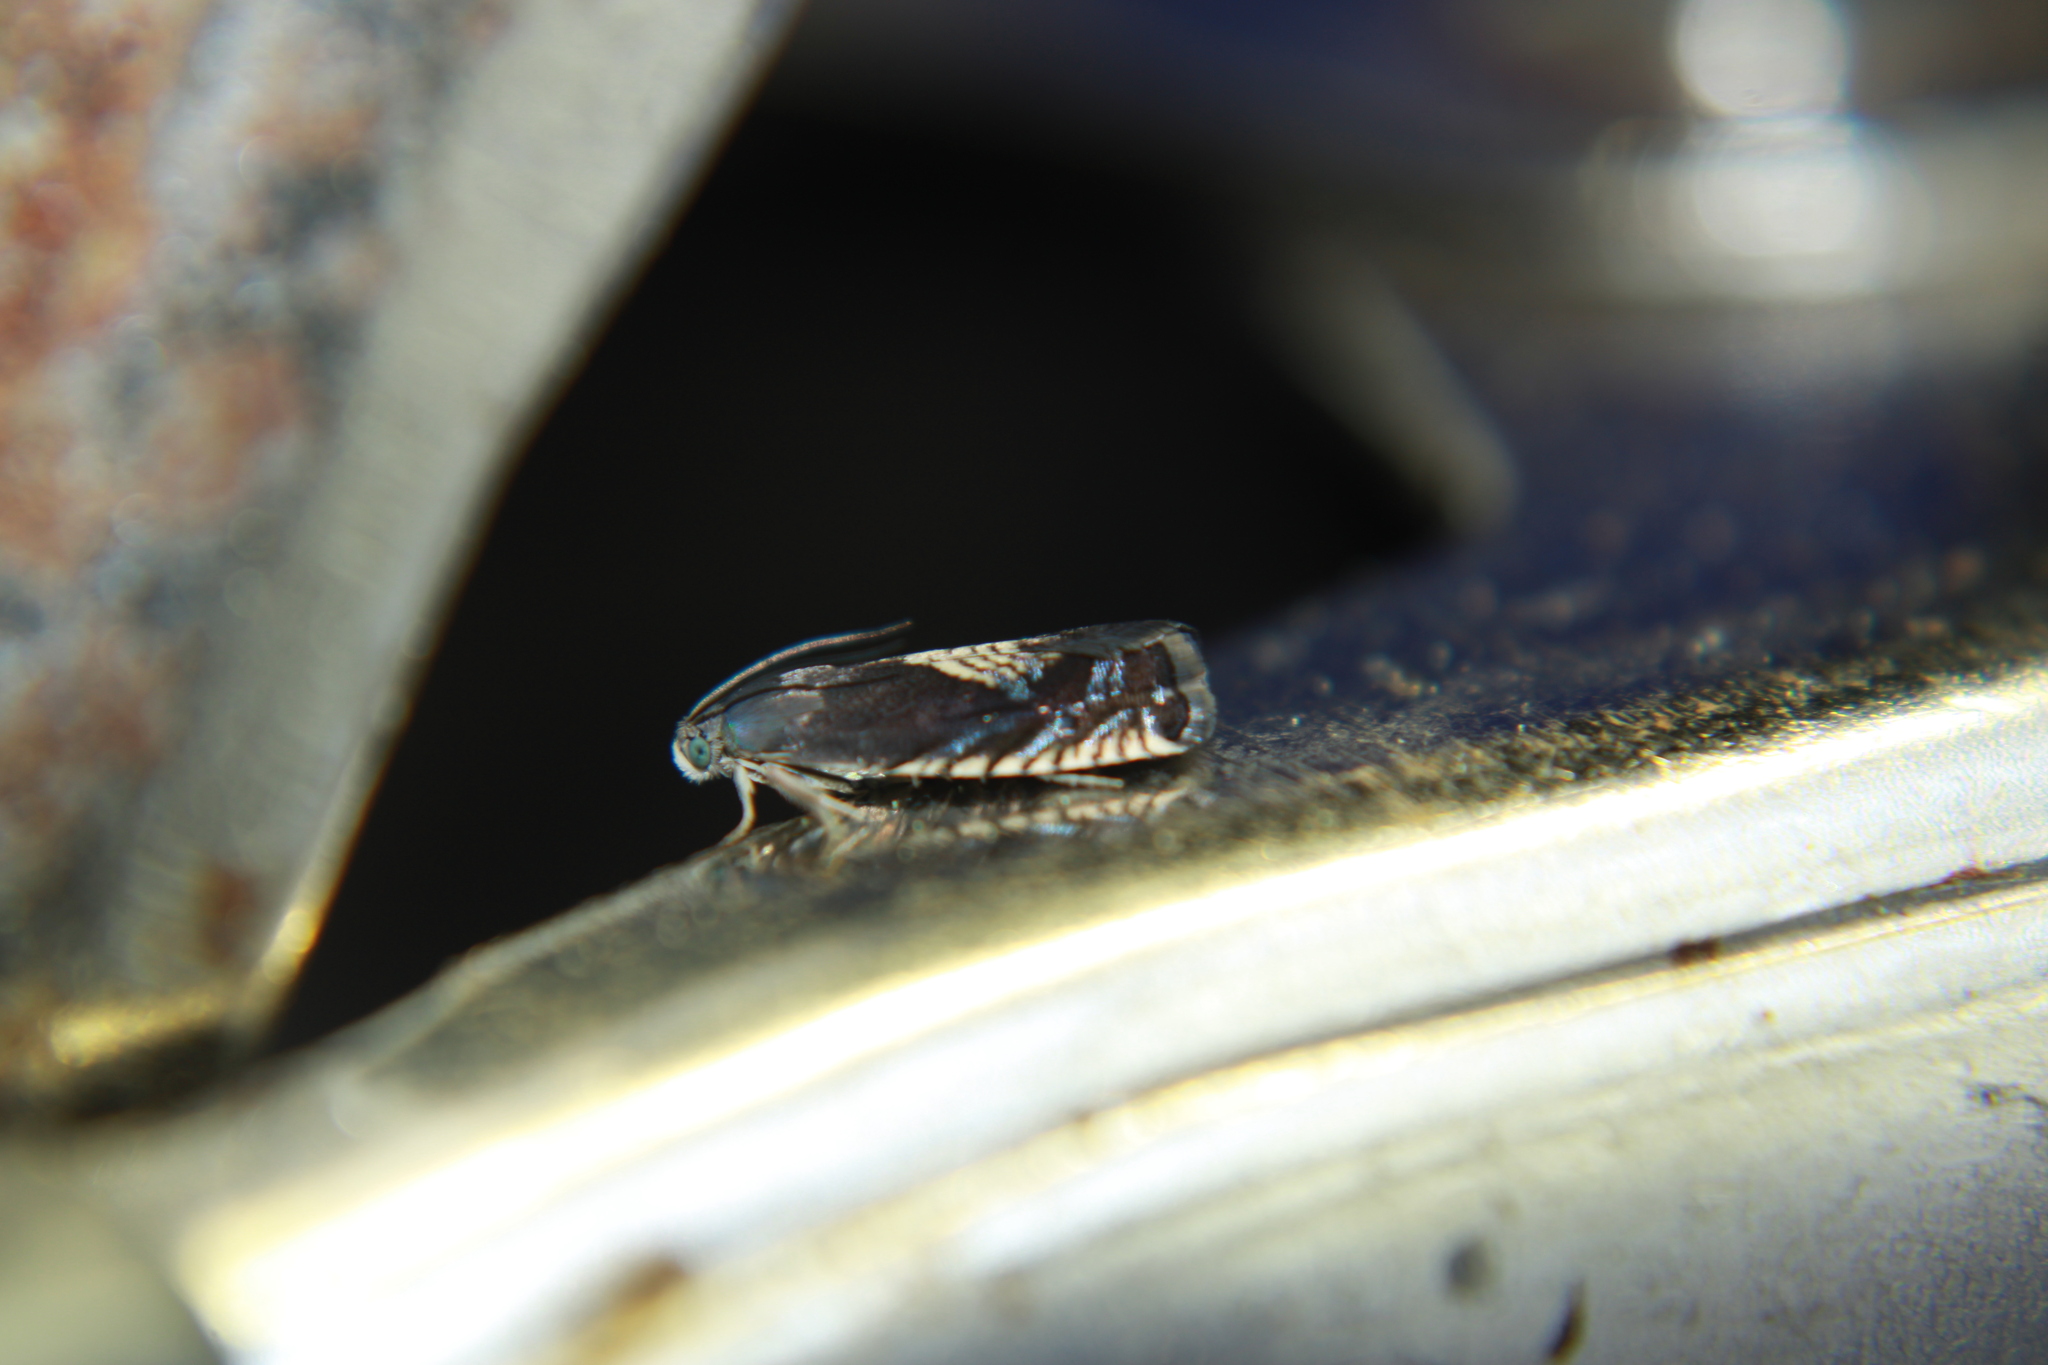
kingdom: Animalia
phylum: Arthropoda
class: Insecta
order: Lepidoptera
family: Tortricidae
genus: Grapholita
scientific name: Grapholita tristrigana
